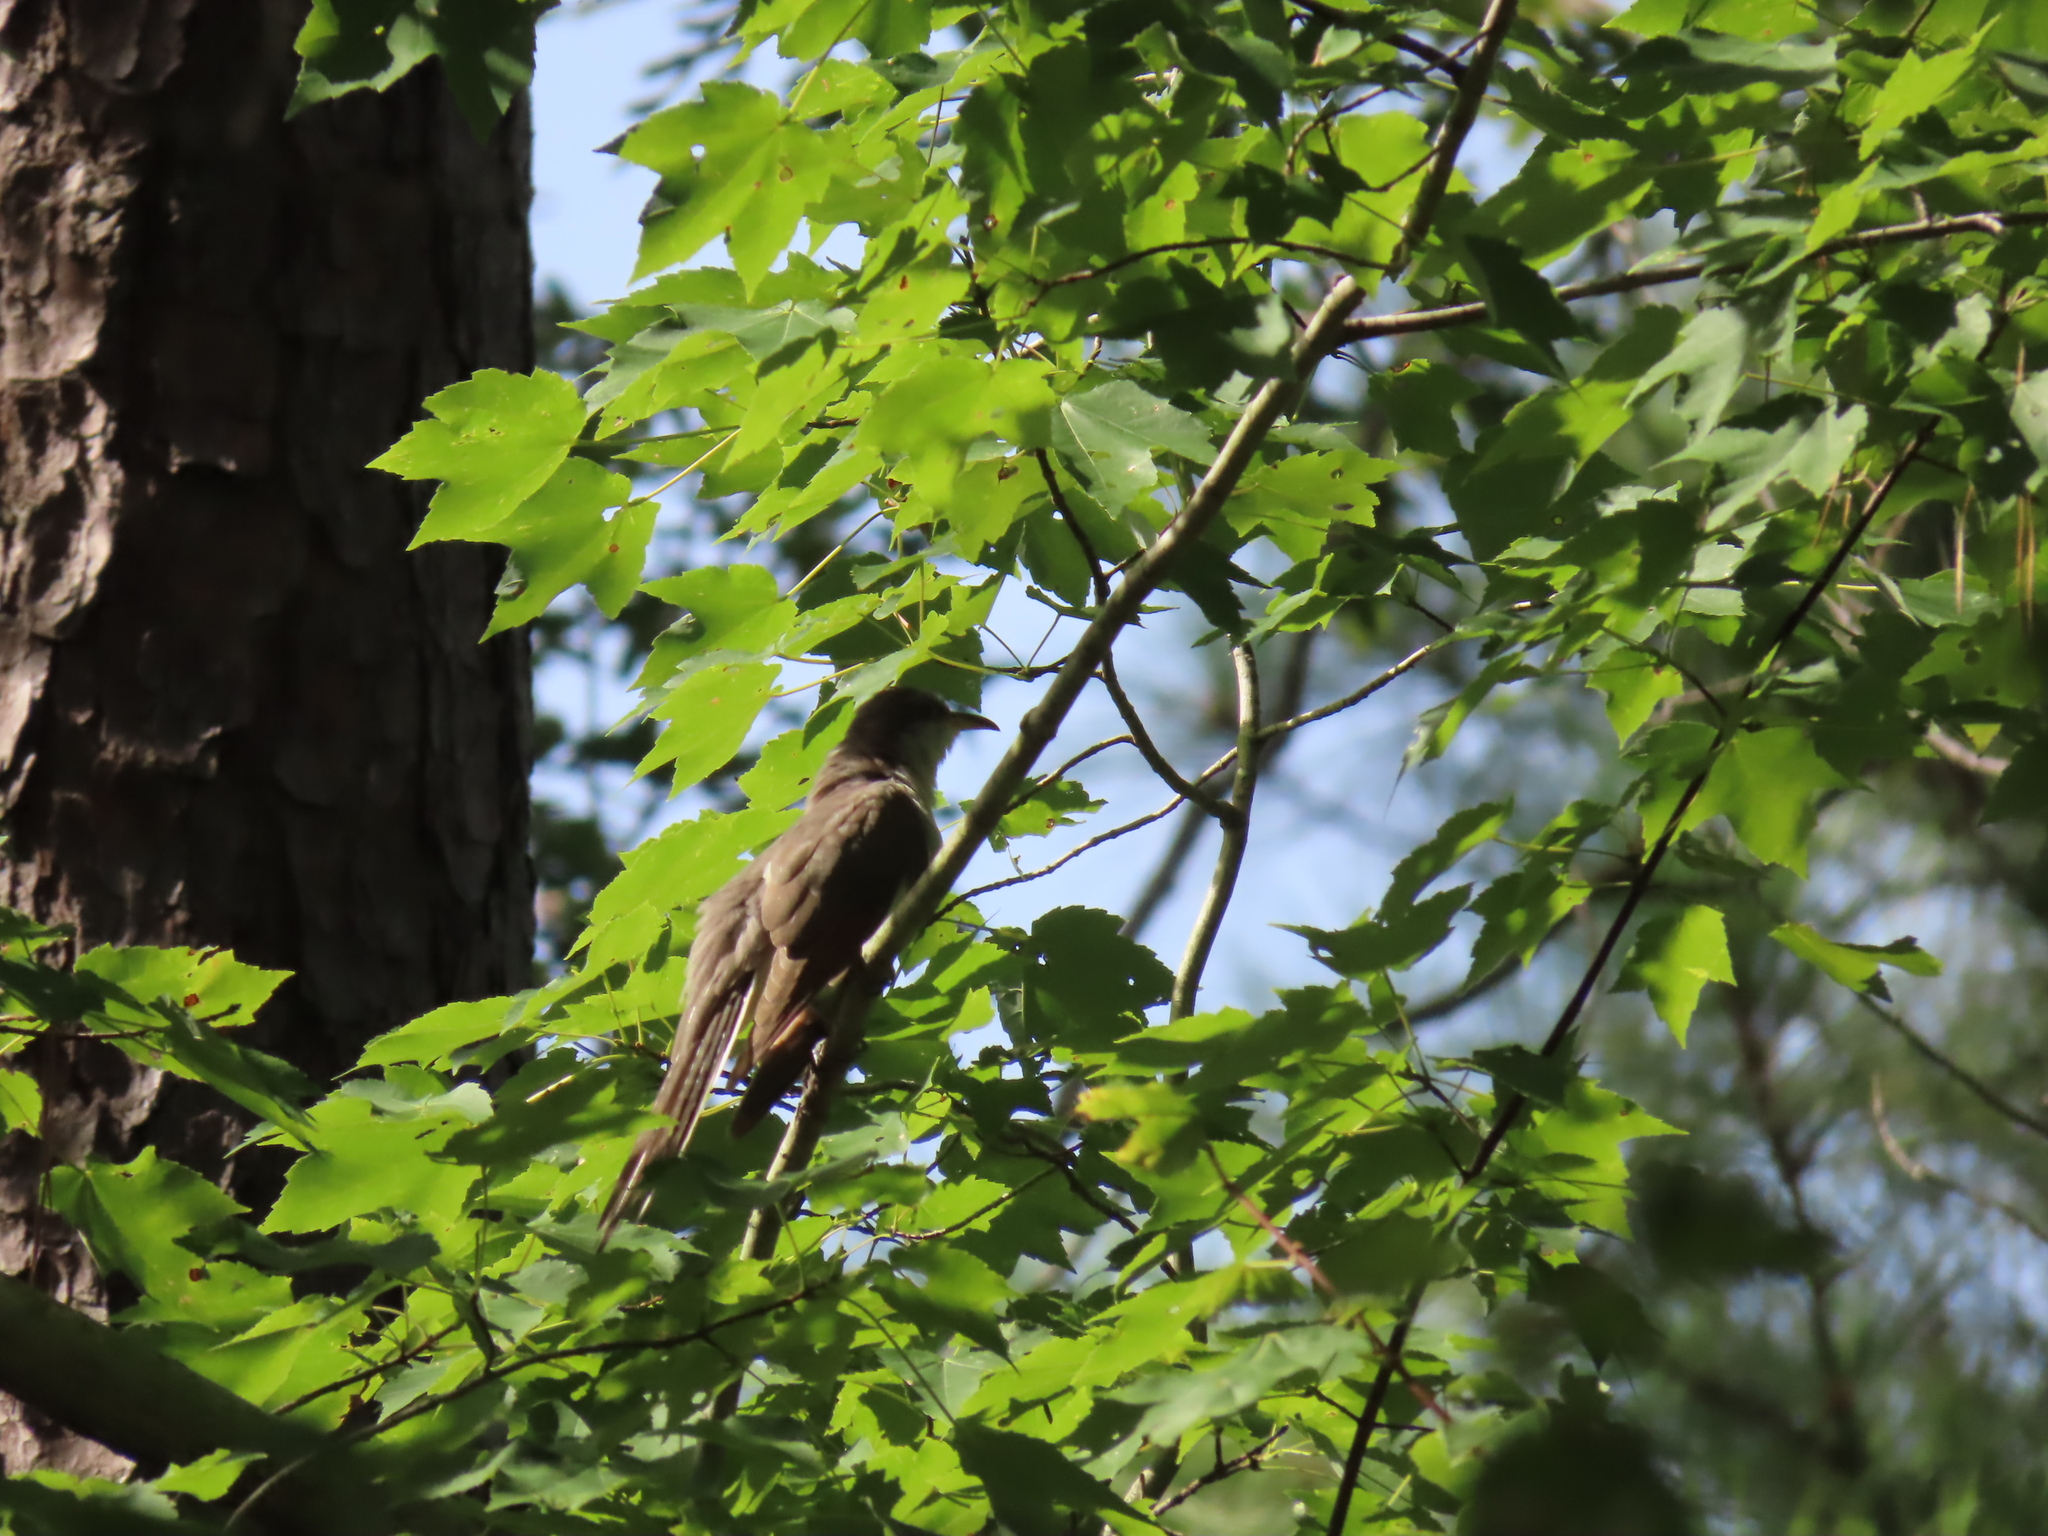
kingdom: Animalia
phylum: Chordata
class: Aves
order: Cuculiformes
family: Cuculidae
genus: Coccyzus
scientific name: Coccyzus americanus
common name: Yellow-billed cuckoo
